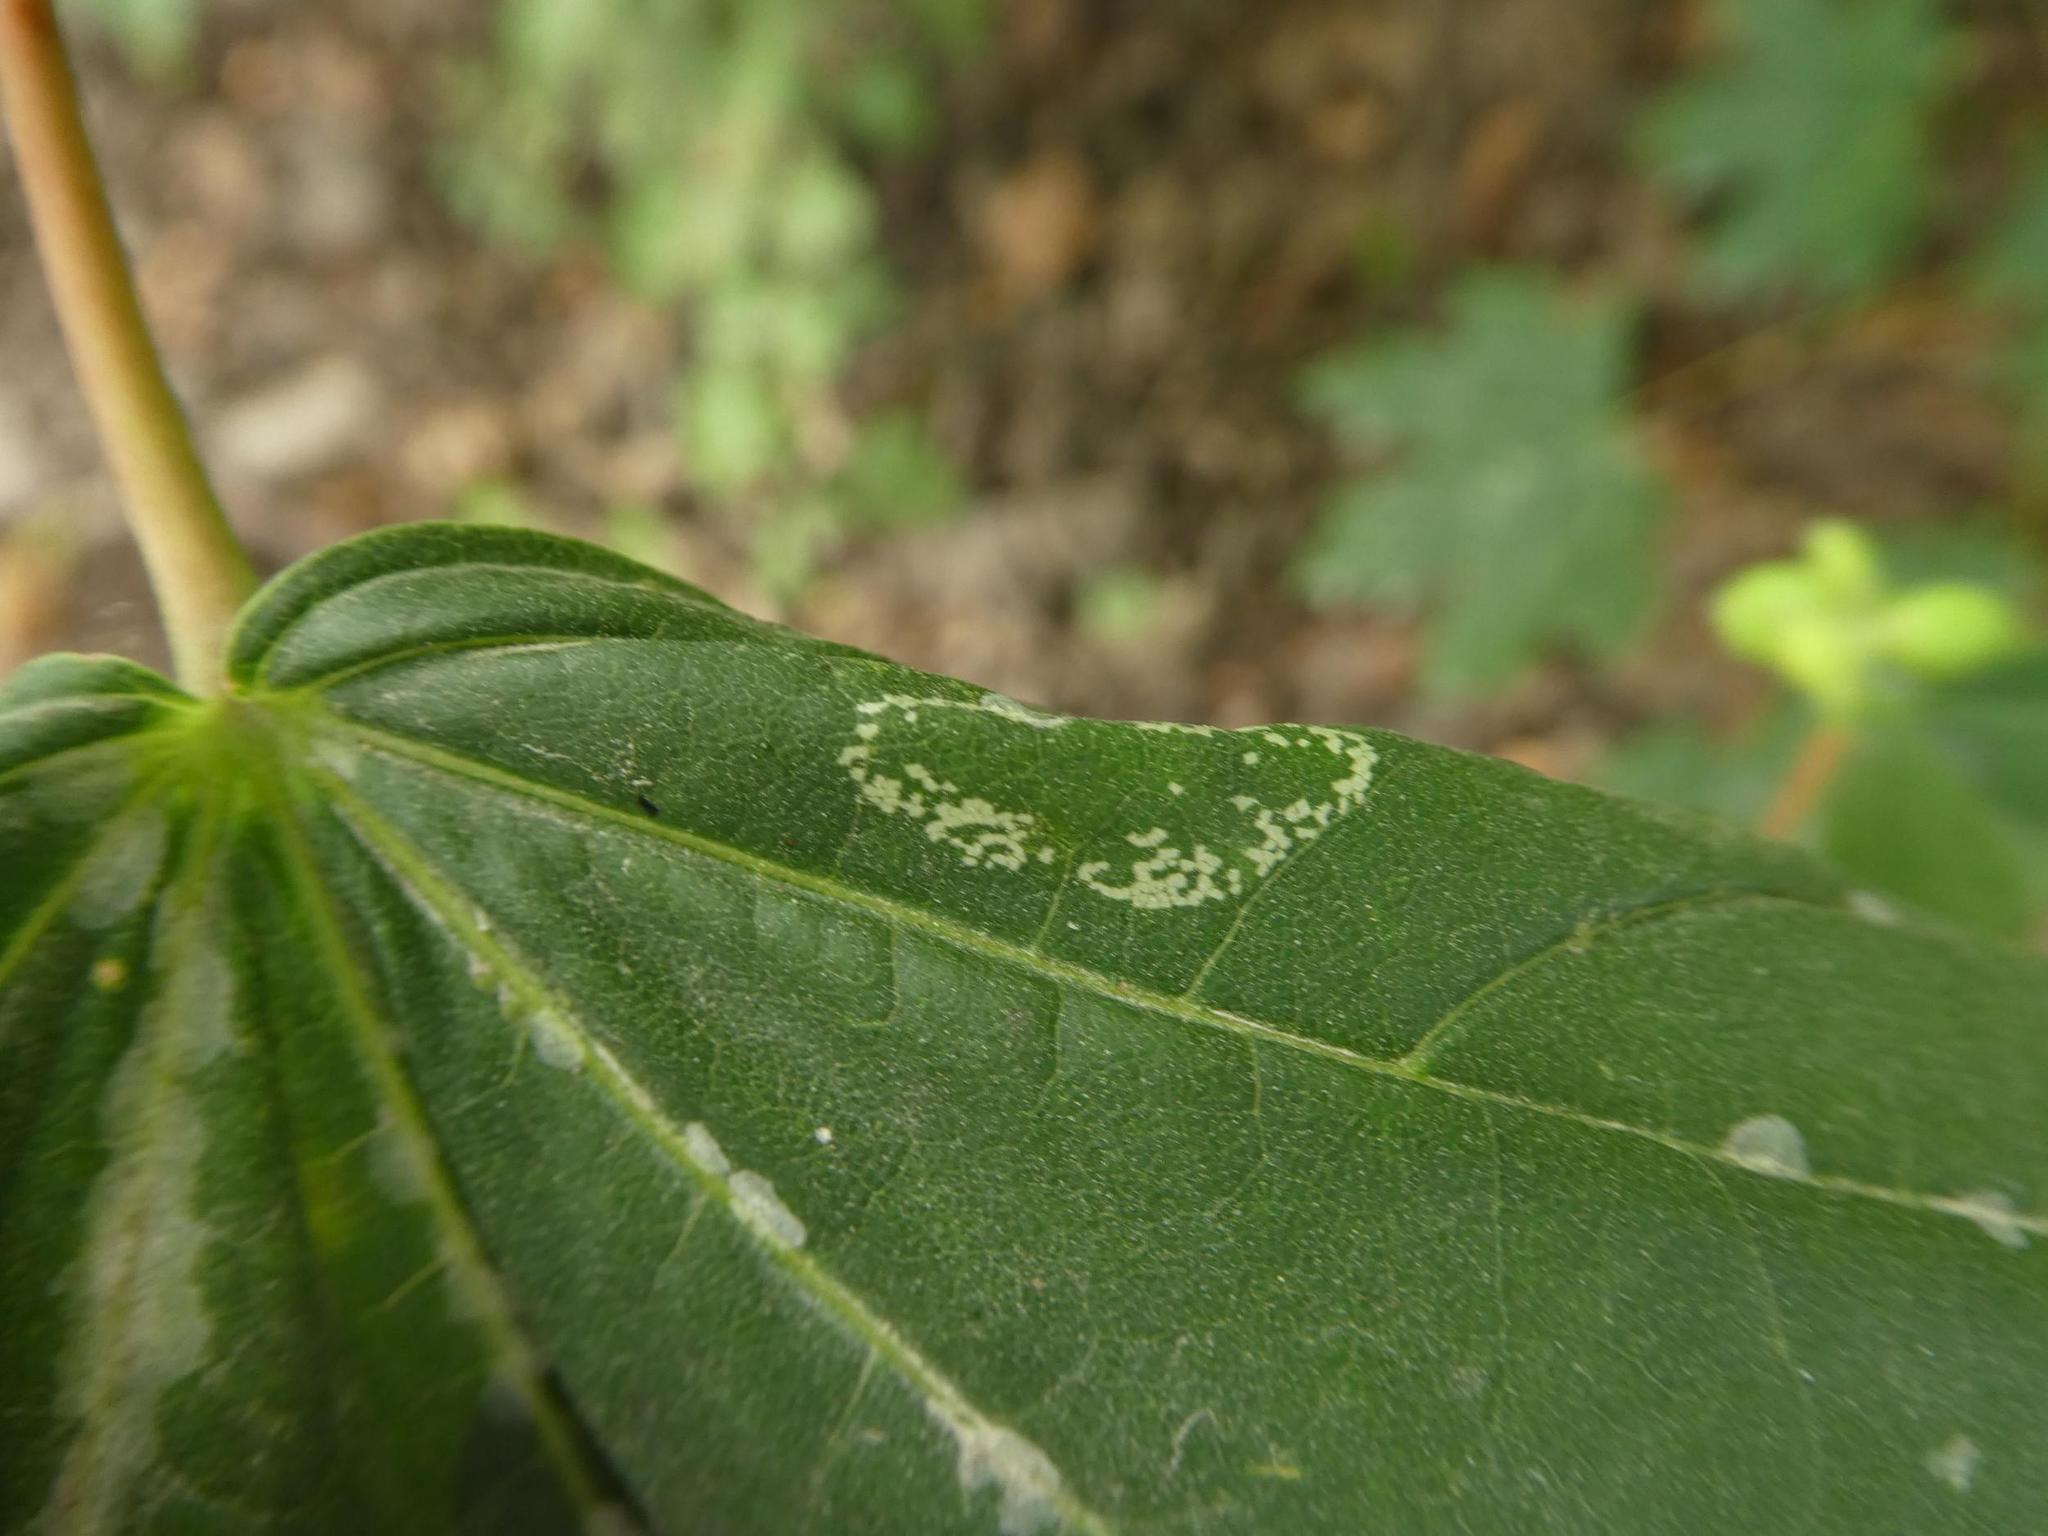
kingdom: Animalia
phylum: Arthropoda
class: Insecta
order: Lepidoptera
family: Gracillariidae
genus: Phyllonorycter
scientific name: Phyllonorycter joannisi
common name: White-bodied midget
